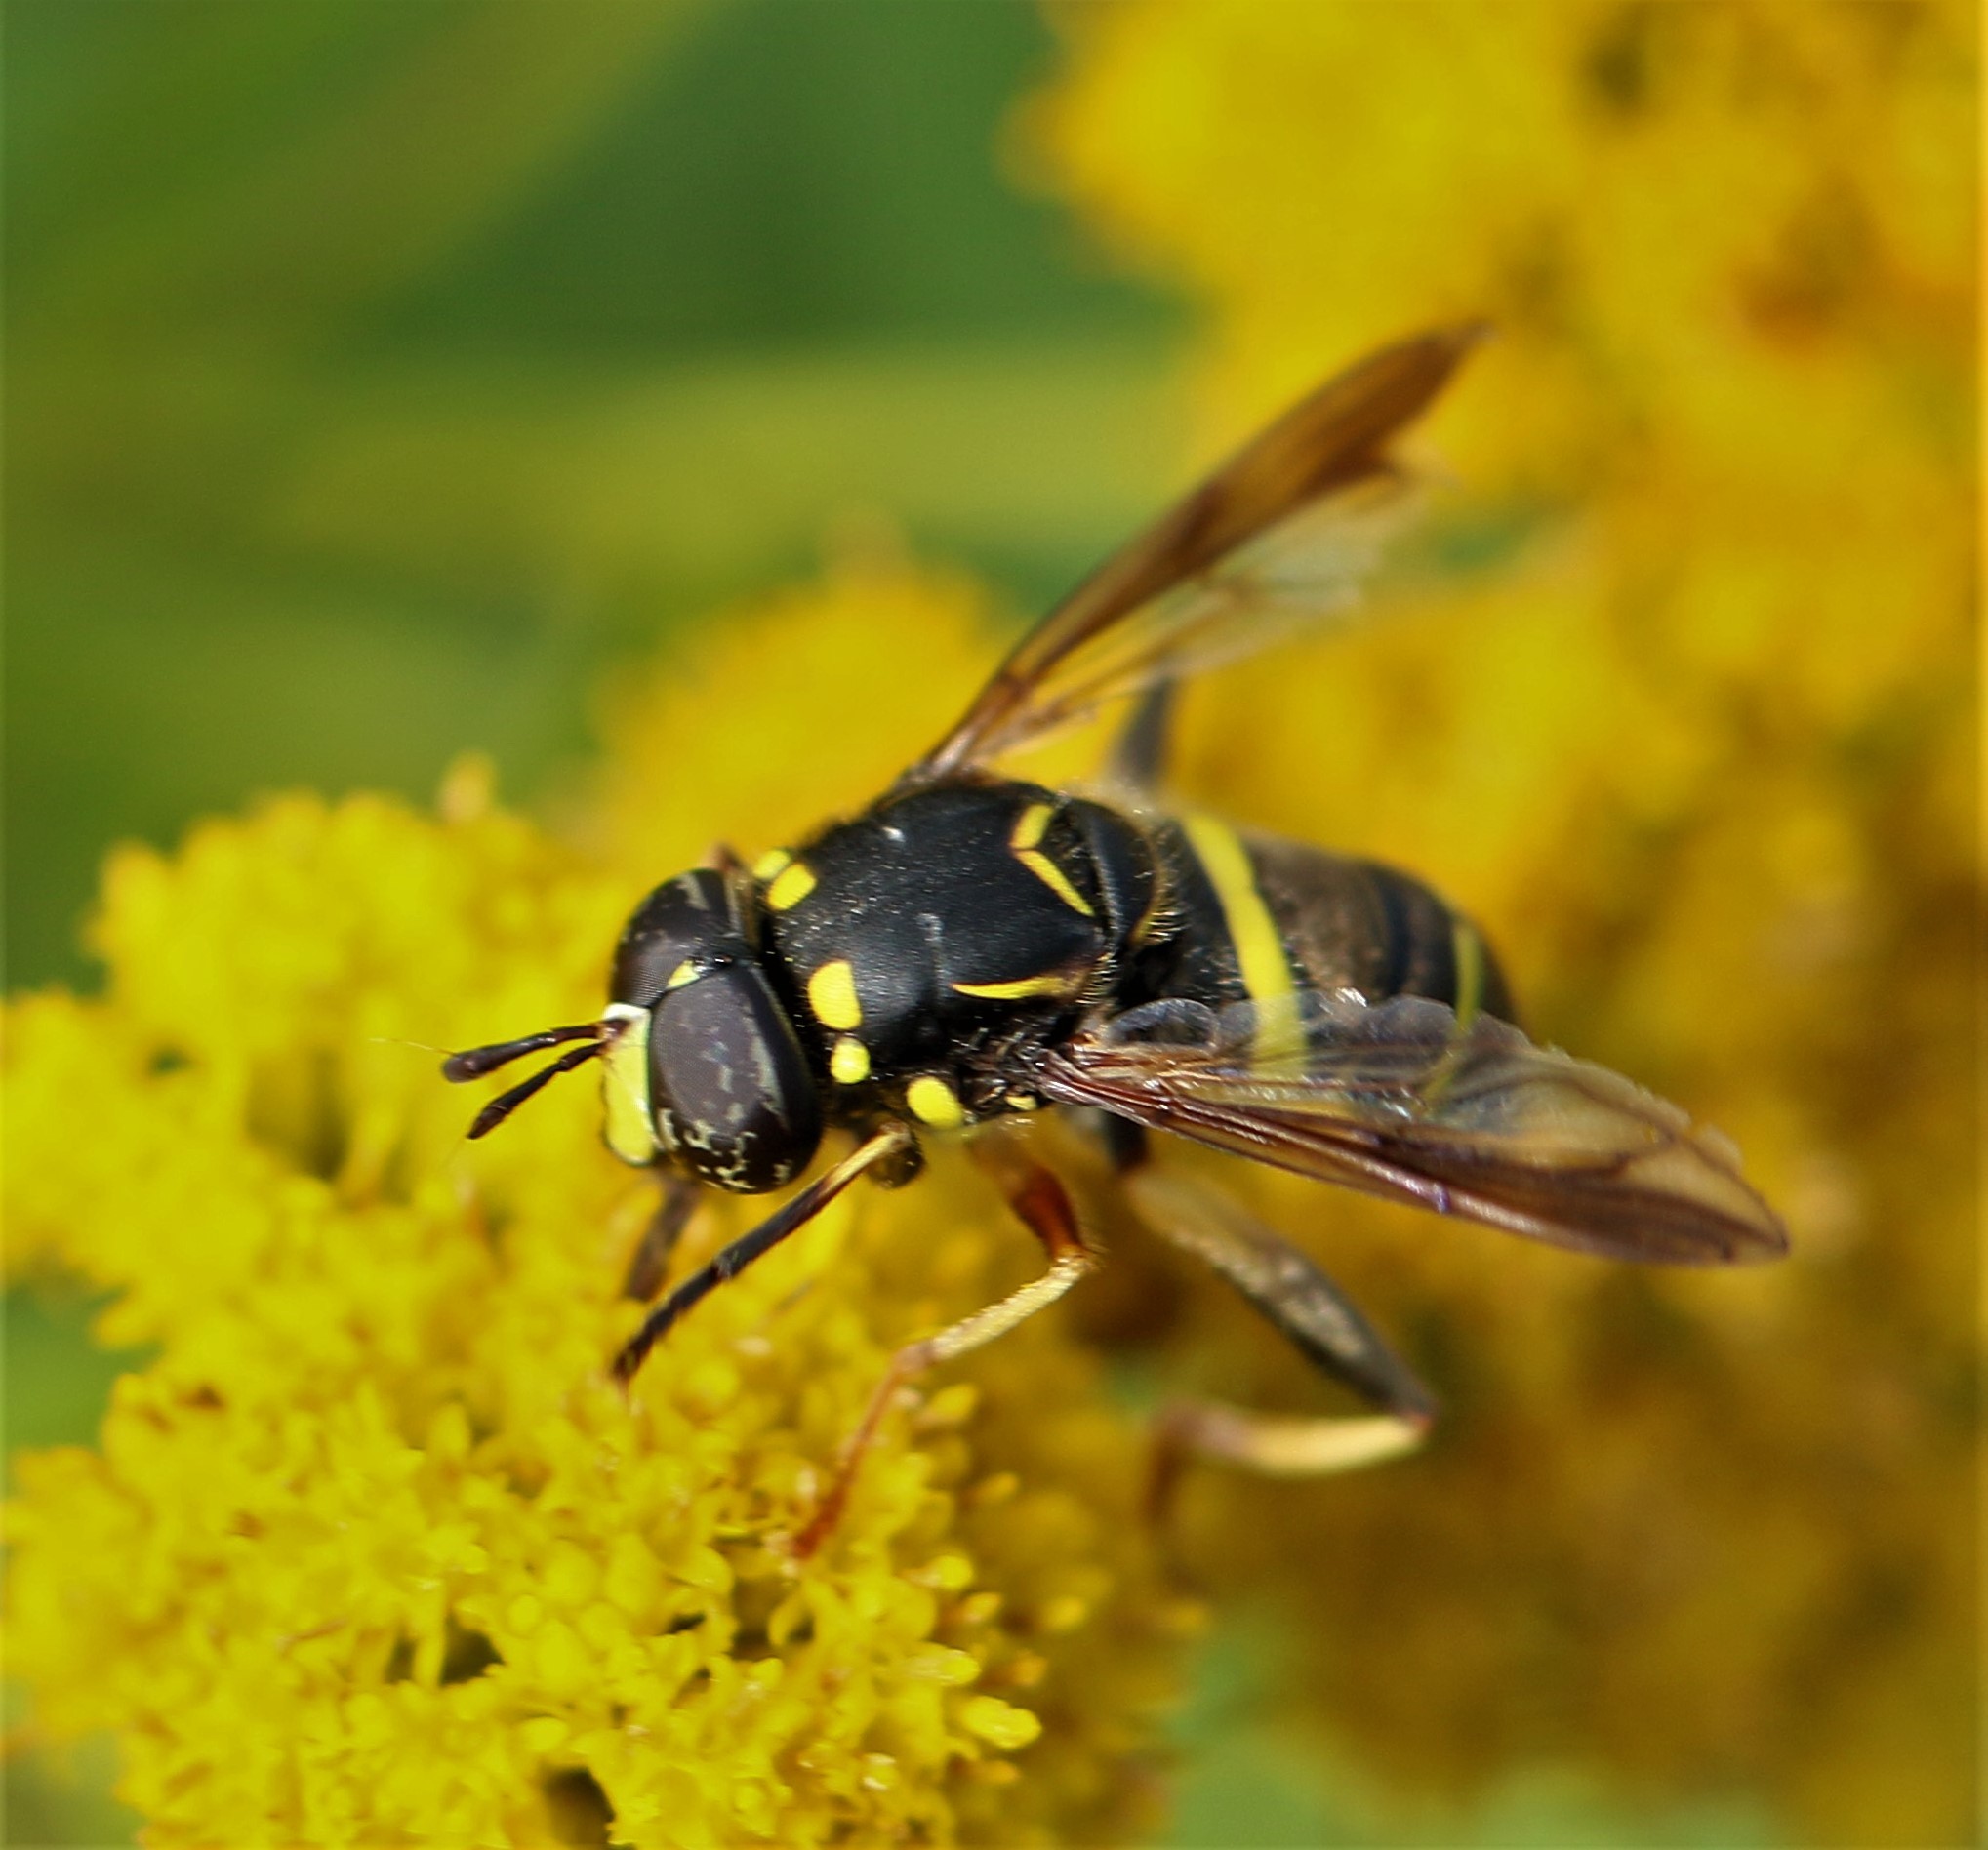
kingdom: Animalia
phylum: Arthropoda
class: Insecta
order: Diptera
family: Syrphidae
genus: Spilomyia
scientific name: Spilomyia sayi
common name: Four-lined hornet fly
